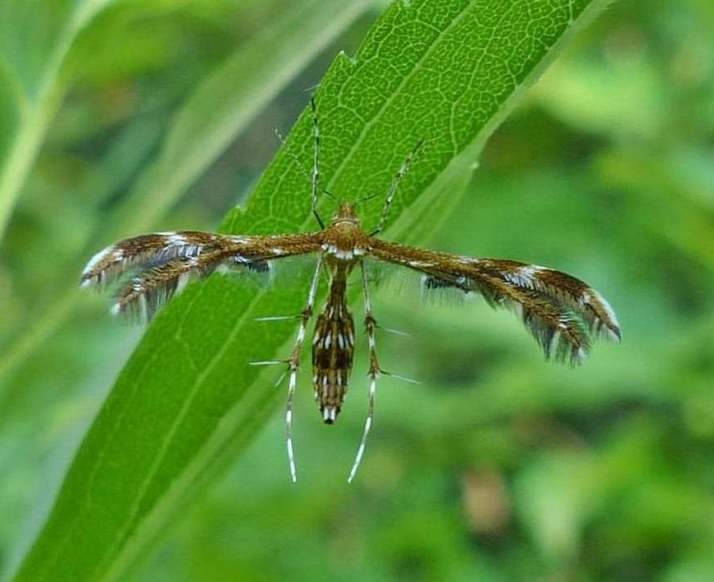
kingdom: Animalia
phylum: Arthropoda
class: Insecta
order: Lepidoptera
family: Pterophoridae
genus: Dejongia
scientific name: Dejongia lobidactylus
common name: Lobed plume moth
